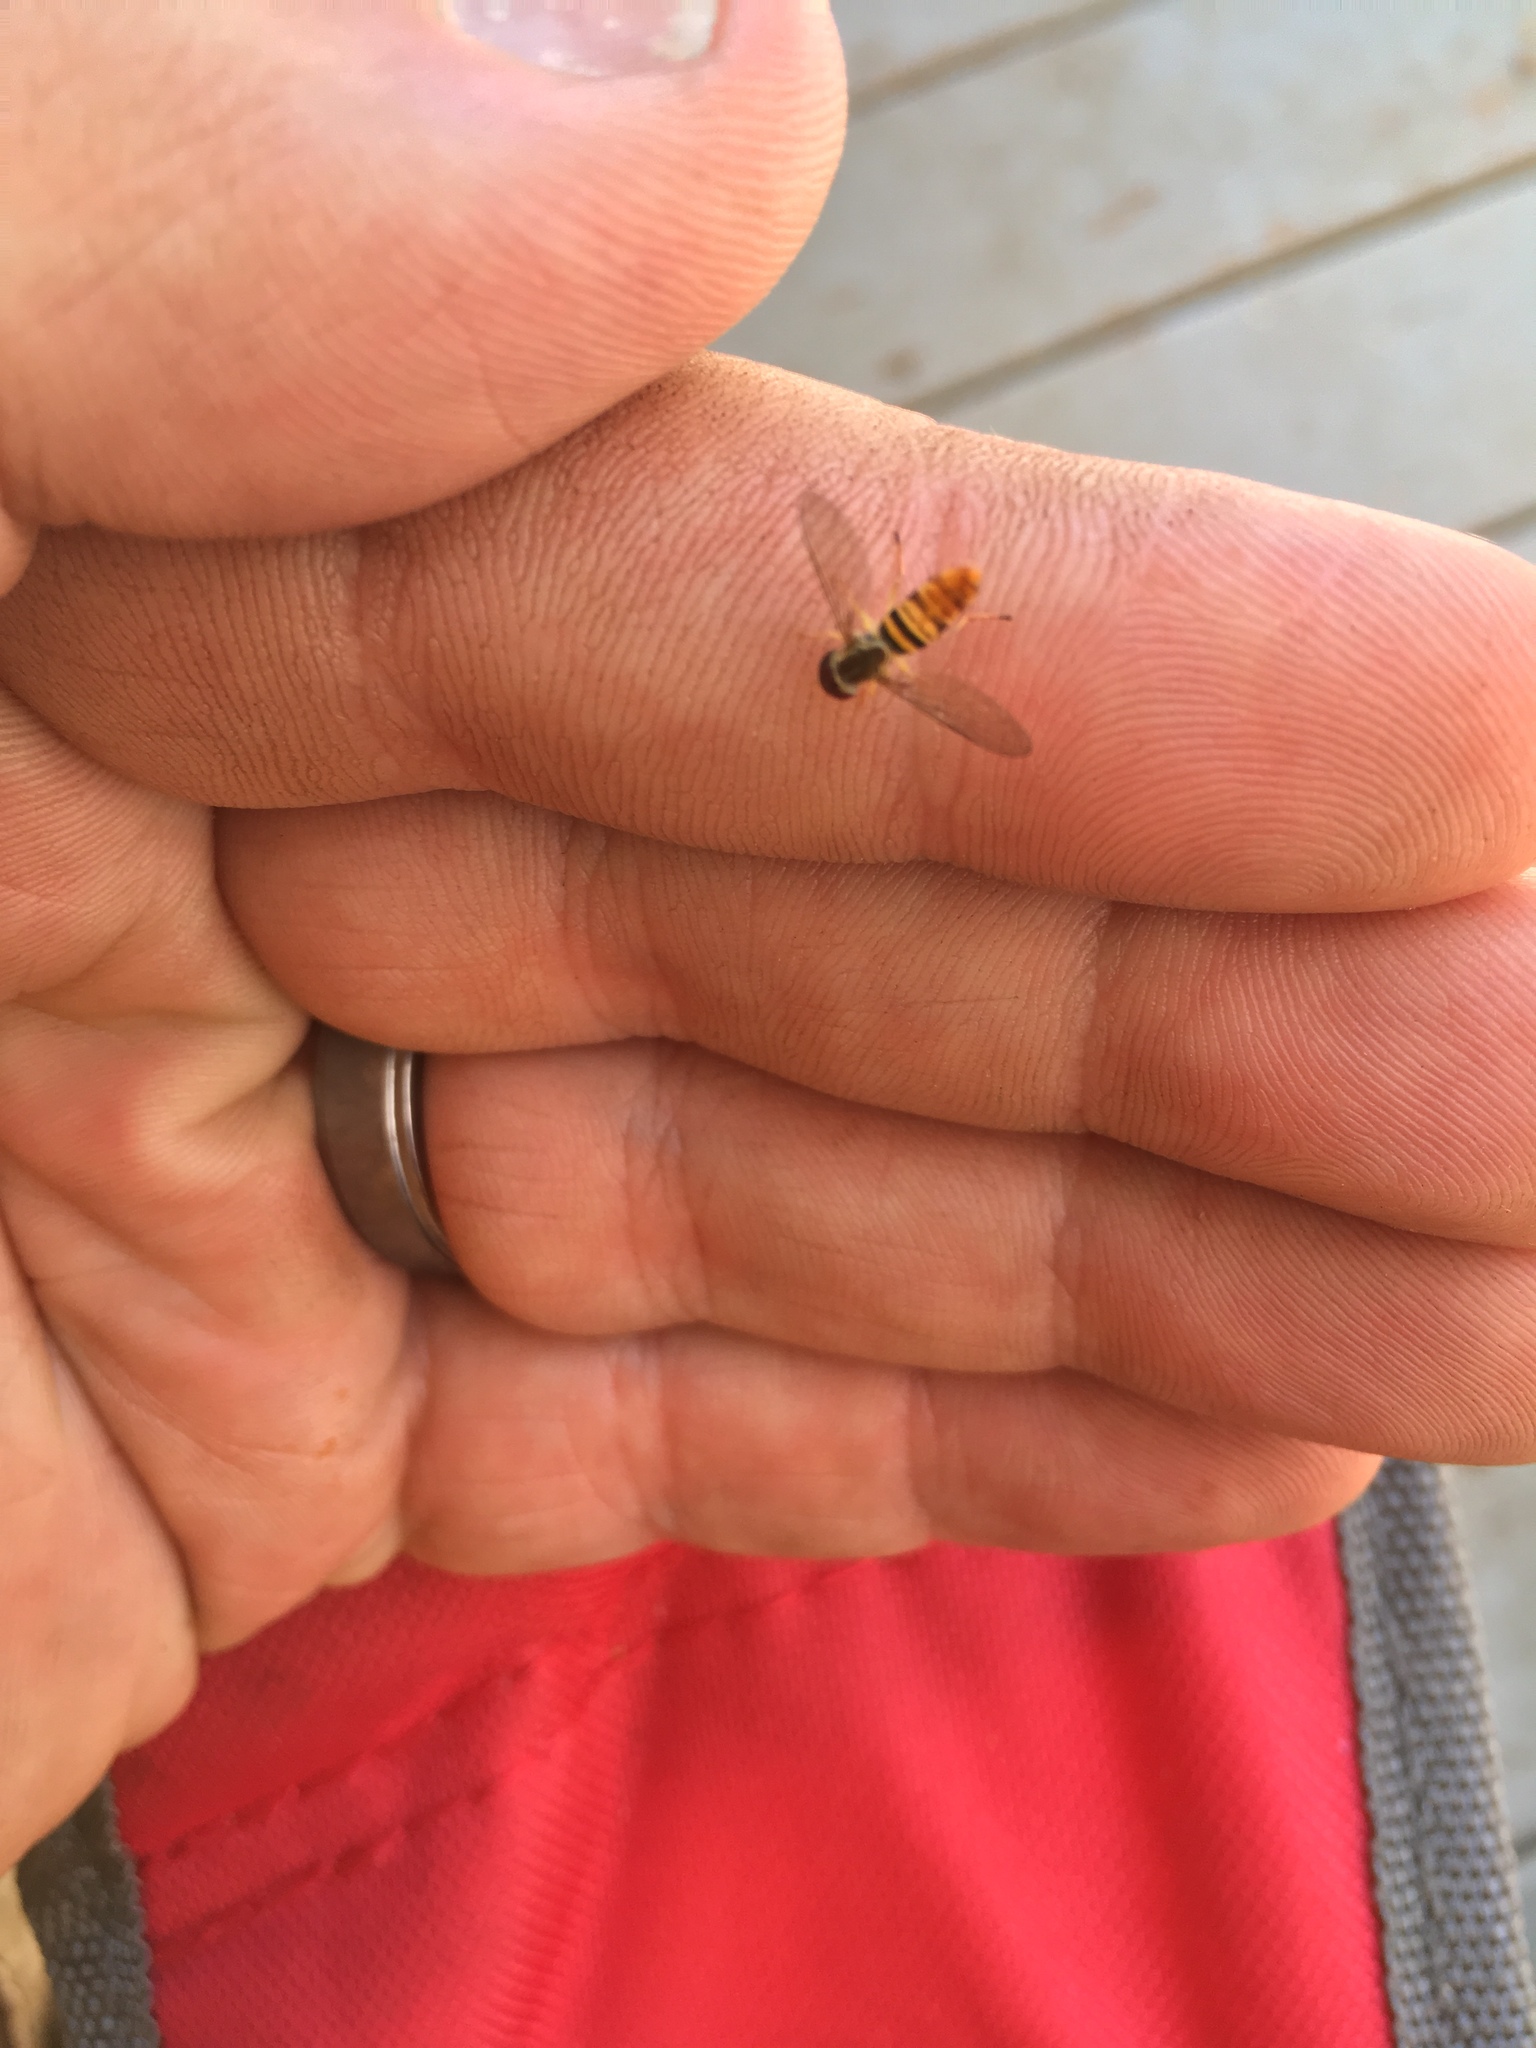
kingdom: Animalia
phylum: Arthropoda
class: Insecta
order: Diptera
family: Syrphidae
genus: Toxomerus
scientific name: Toxomerus politus
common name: Maize calligrapher
